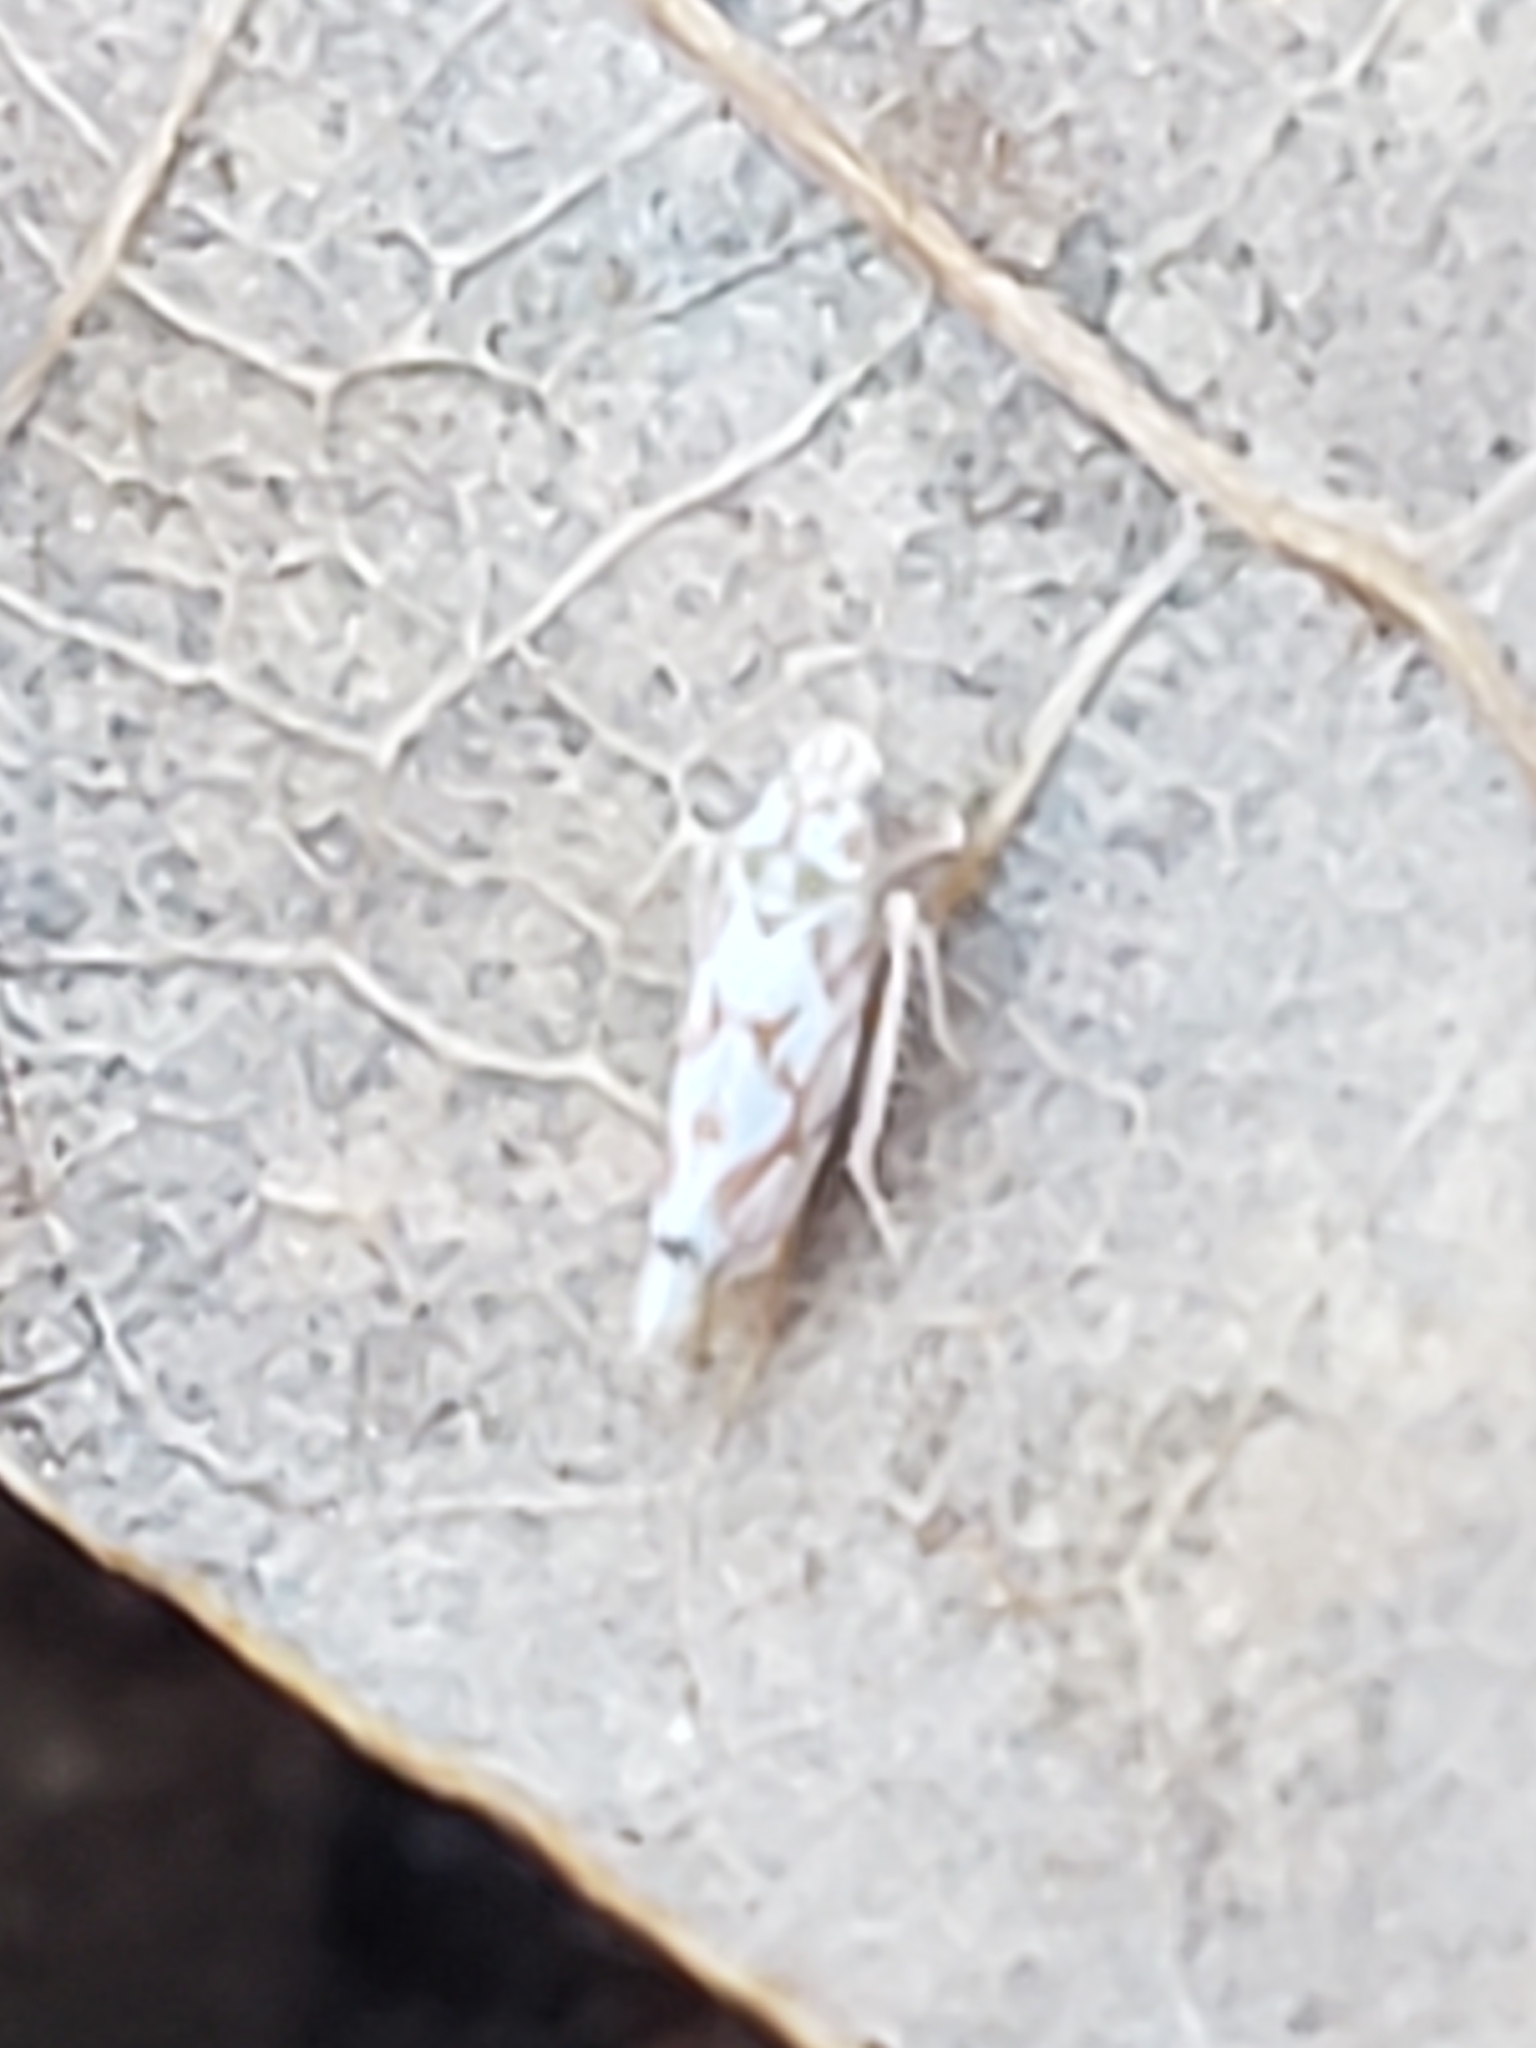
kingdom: Animalia
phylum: Arthropoda
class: Insecta
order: Hemiptera
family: Cicadellidae
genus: Erythroneura
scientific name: Erythroneura delicata
